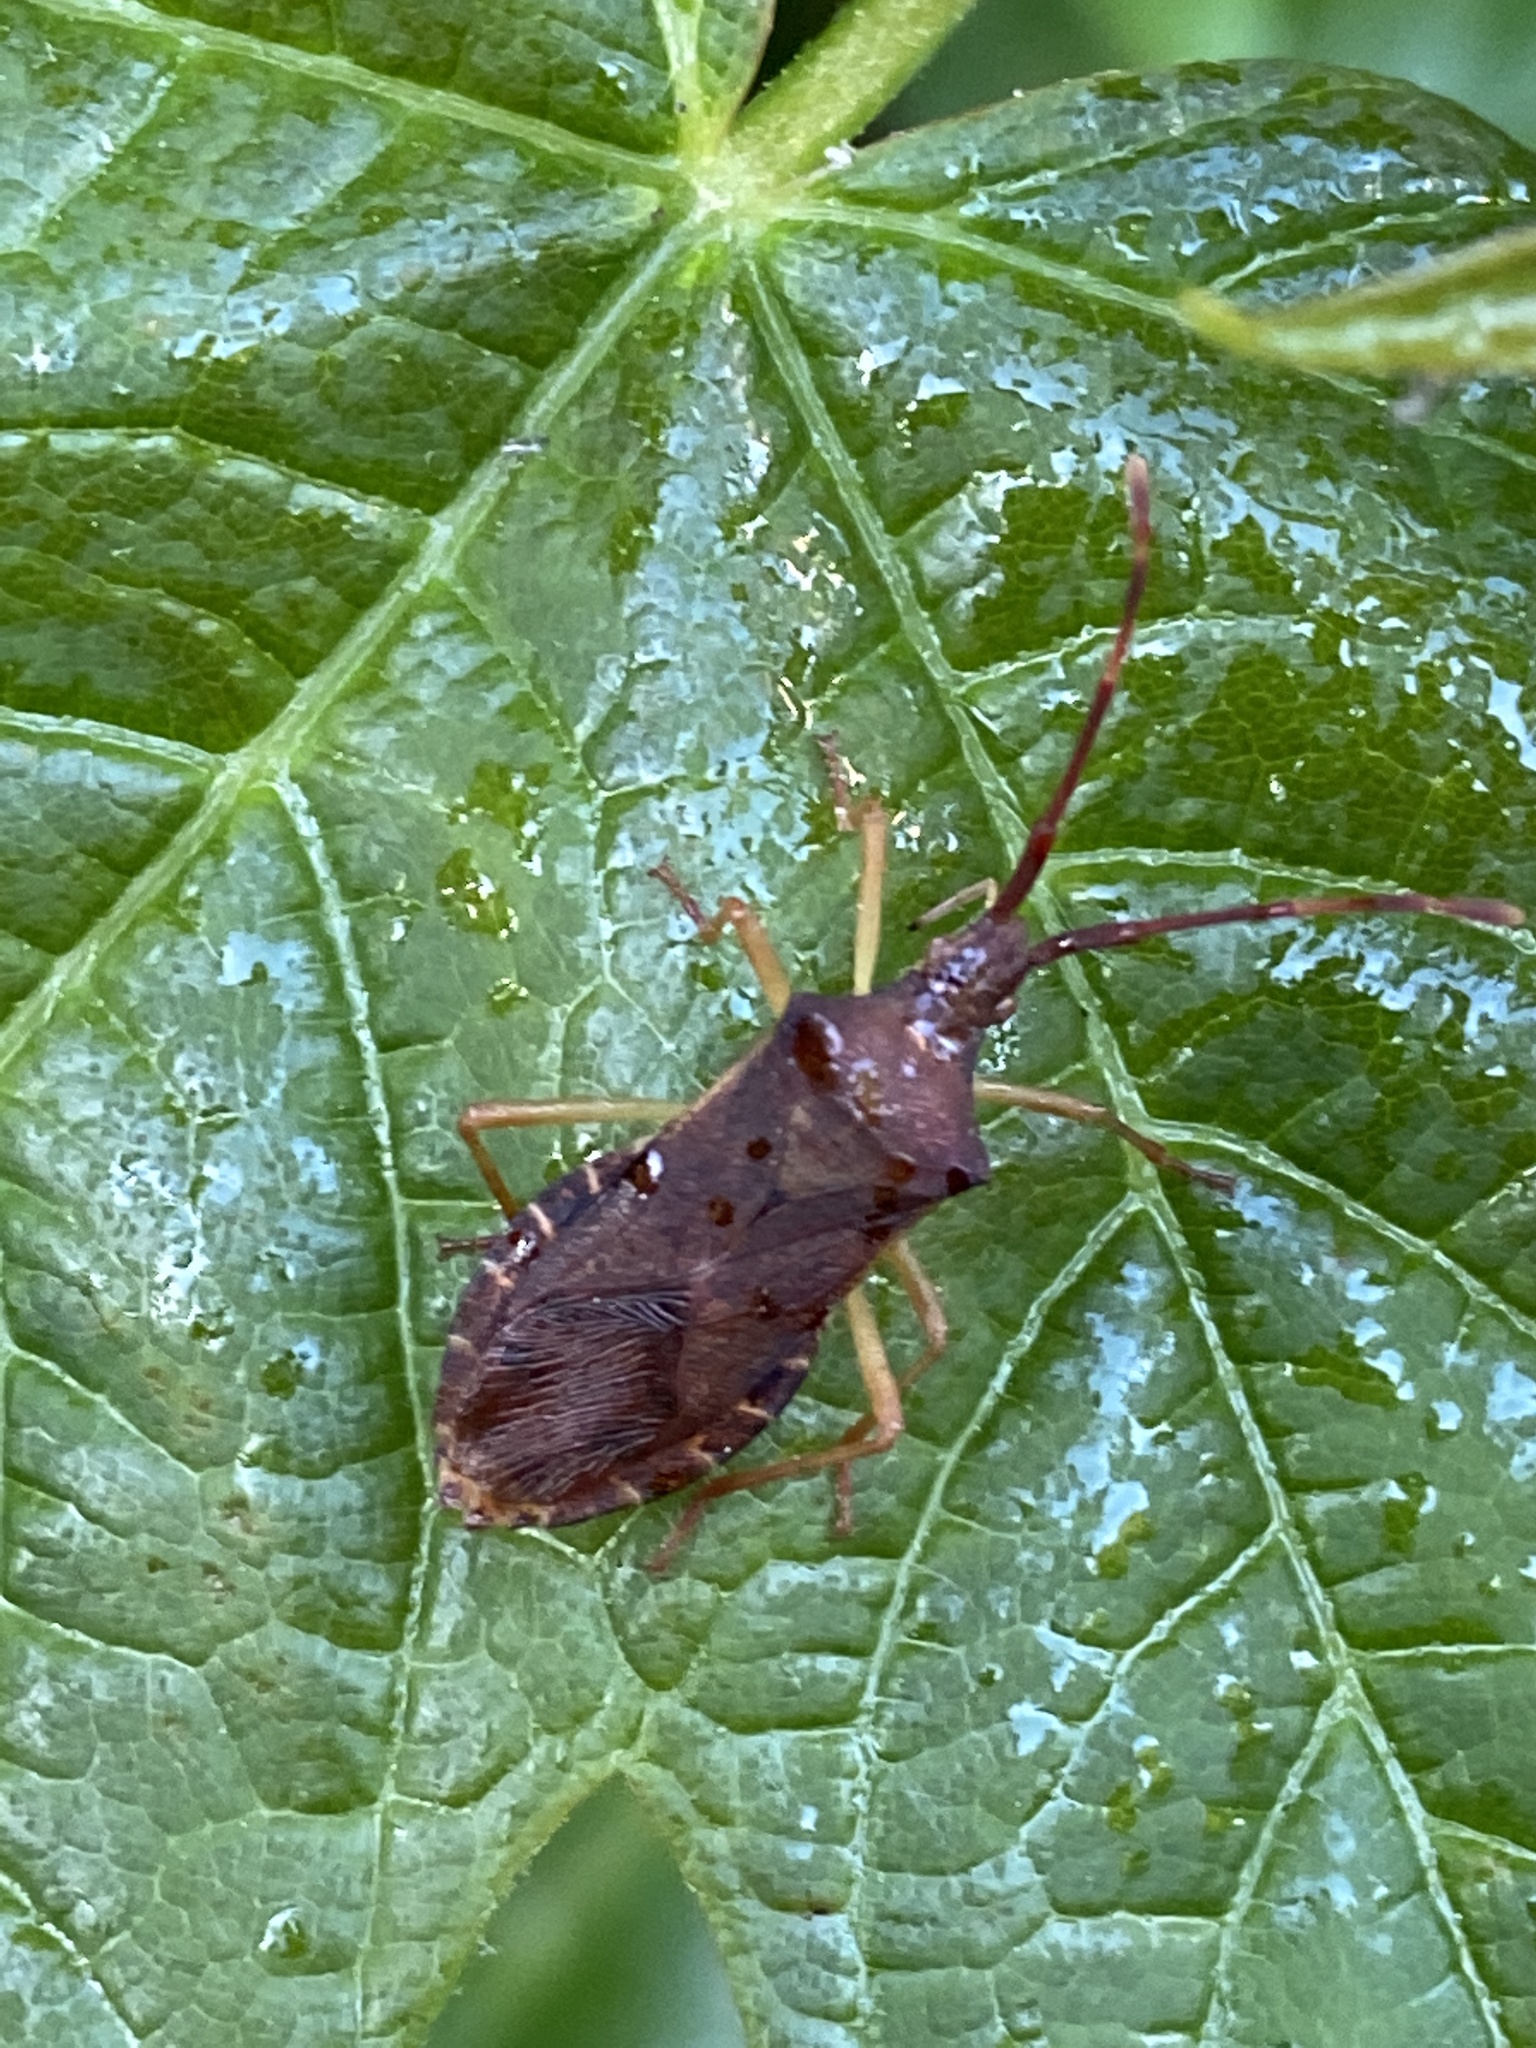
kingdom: Animalia
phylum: Arthropoda
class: Insecta
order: Hemiptera
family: Coreidae
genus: Gonocerus
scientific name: Gonocerus acuteangulatus
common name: Box bug
